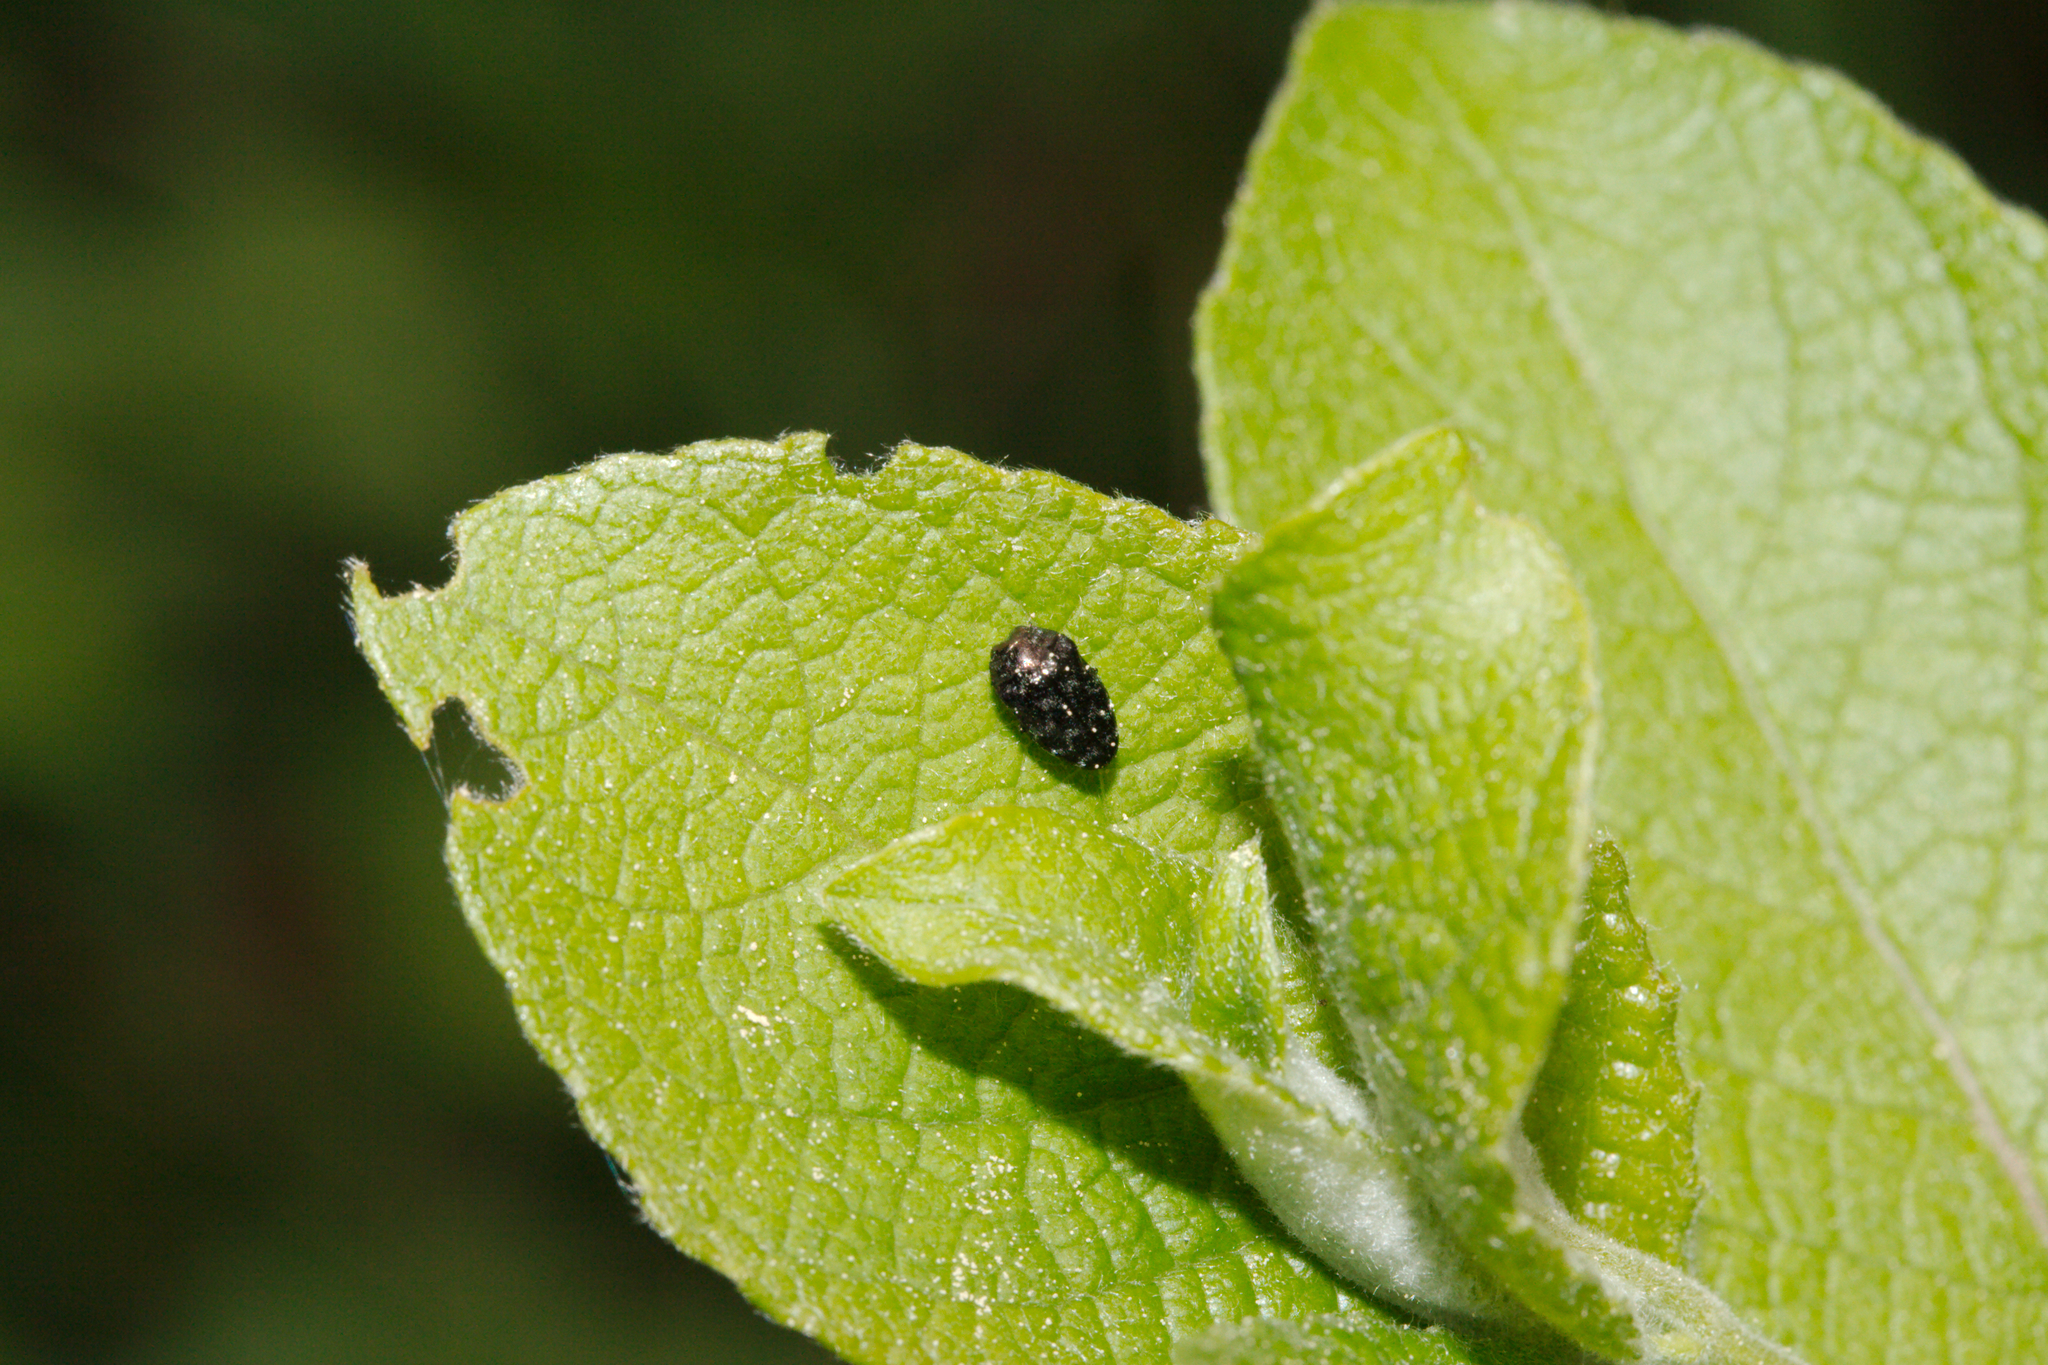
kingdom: Animalia
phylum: Arthropoda
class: Insecta
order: Coleoptera
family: Buprestidae
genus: Trachys
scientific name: Trachys minutus
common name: Metallic wood-boring beetle
